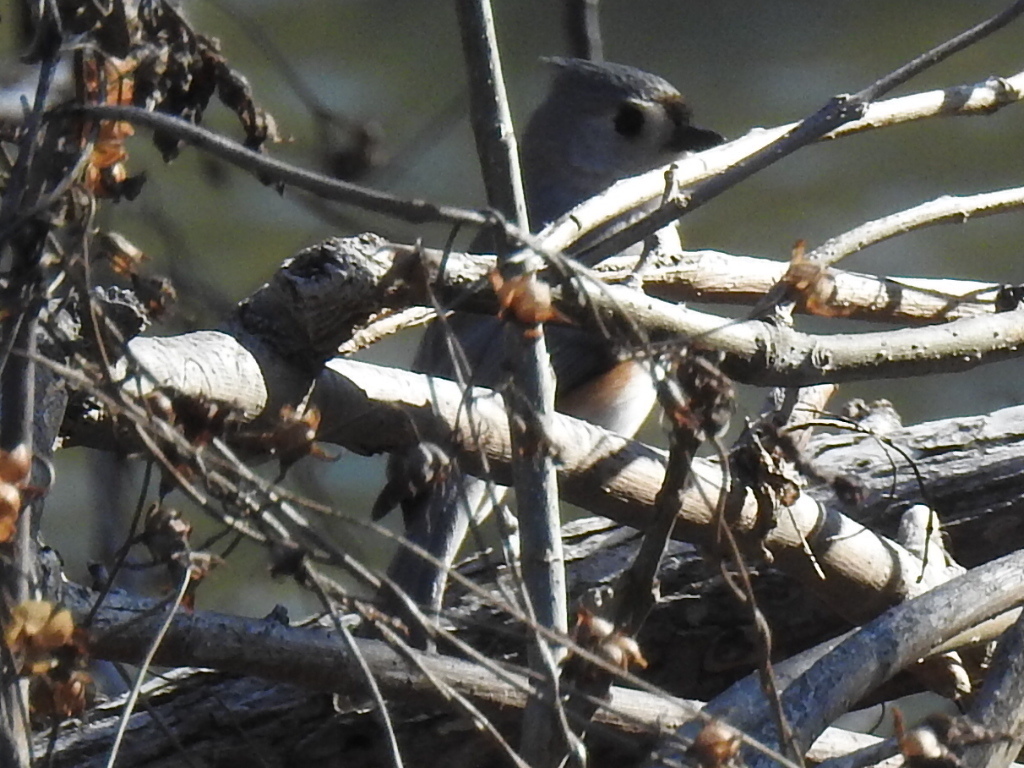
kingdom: Animalia
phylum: Chordata
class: Aves
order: Passeriformes
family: Paridae
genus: Baeolophus
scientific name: Baeolophus bicolor
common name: Tufted titmouse
